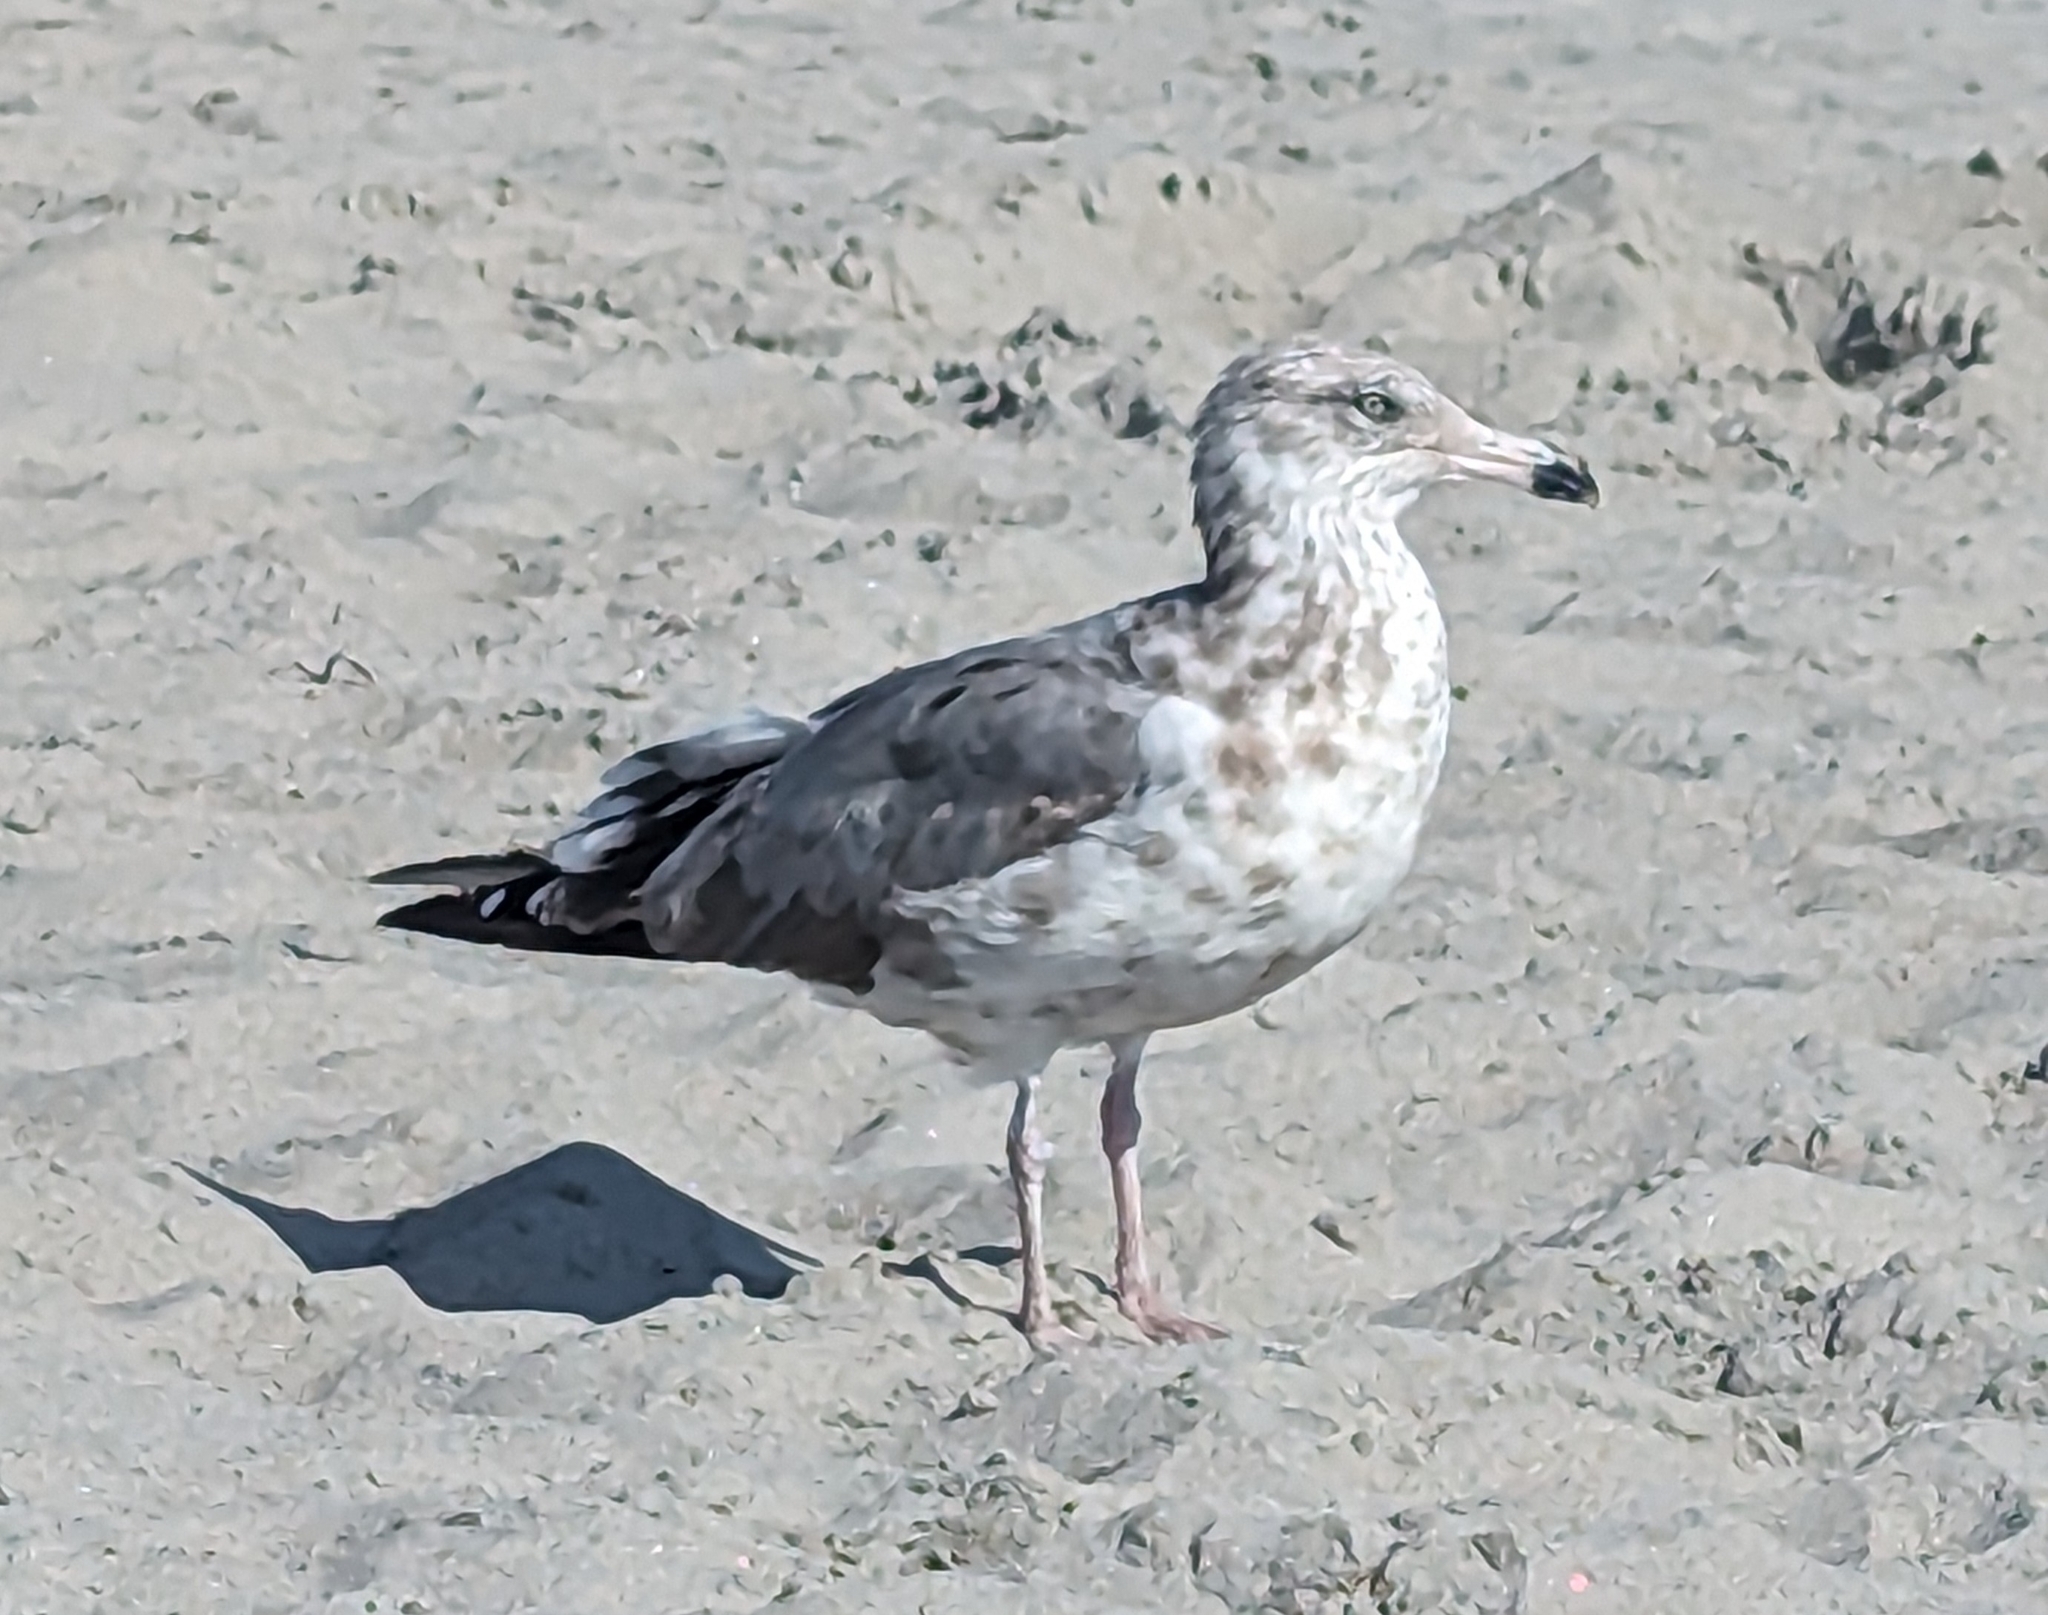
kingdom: Animalia
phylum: Chordata
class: Aves
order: Charadriiformes
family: Laridae
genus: Larus
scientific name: Larus smithsonianus
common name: American herring gull
